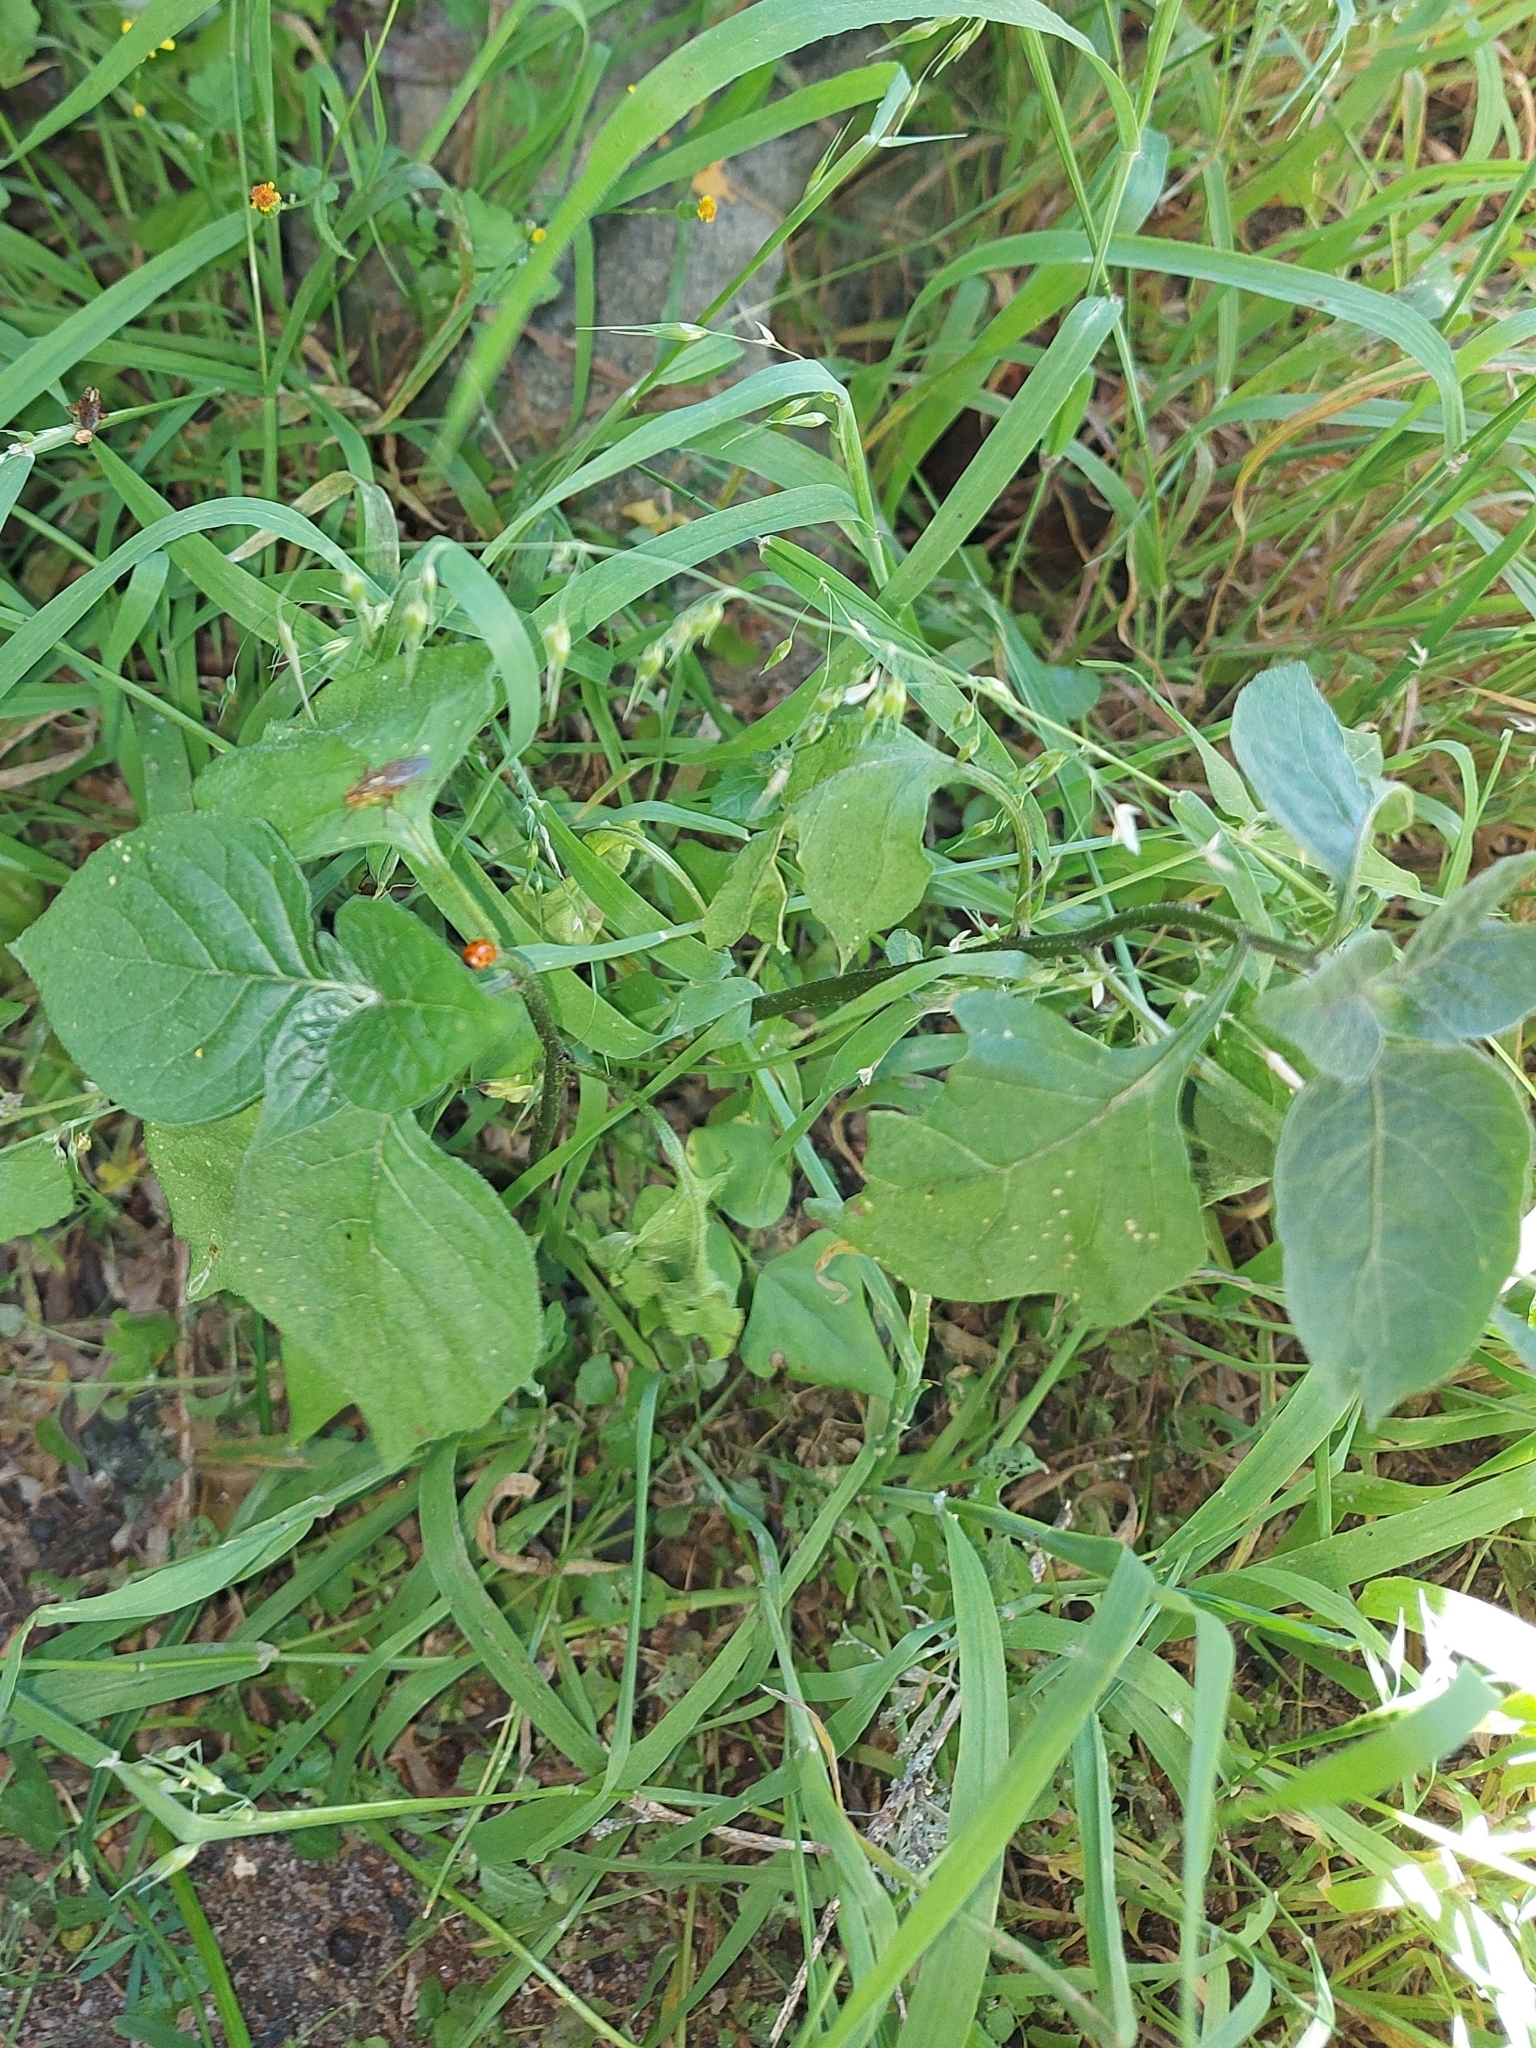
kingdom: Plantae
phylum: Tracheophyta
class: Magnoliopsida
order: Solanales
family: Solanaceae
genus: Solanum
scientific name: Solanum nigrum
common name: Black nightshade
